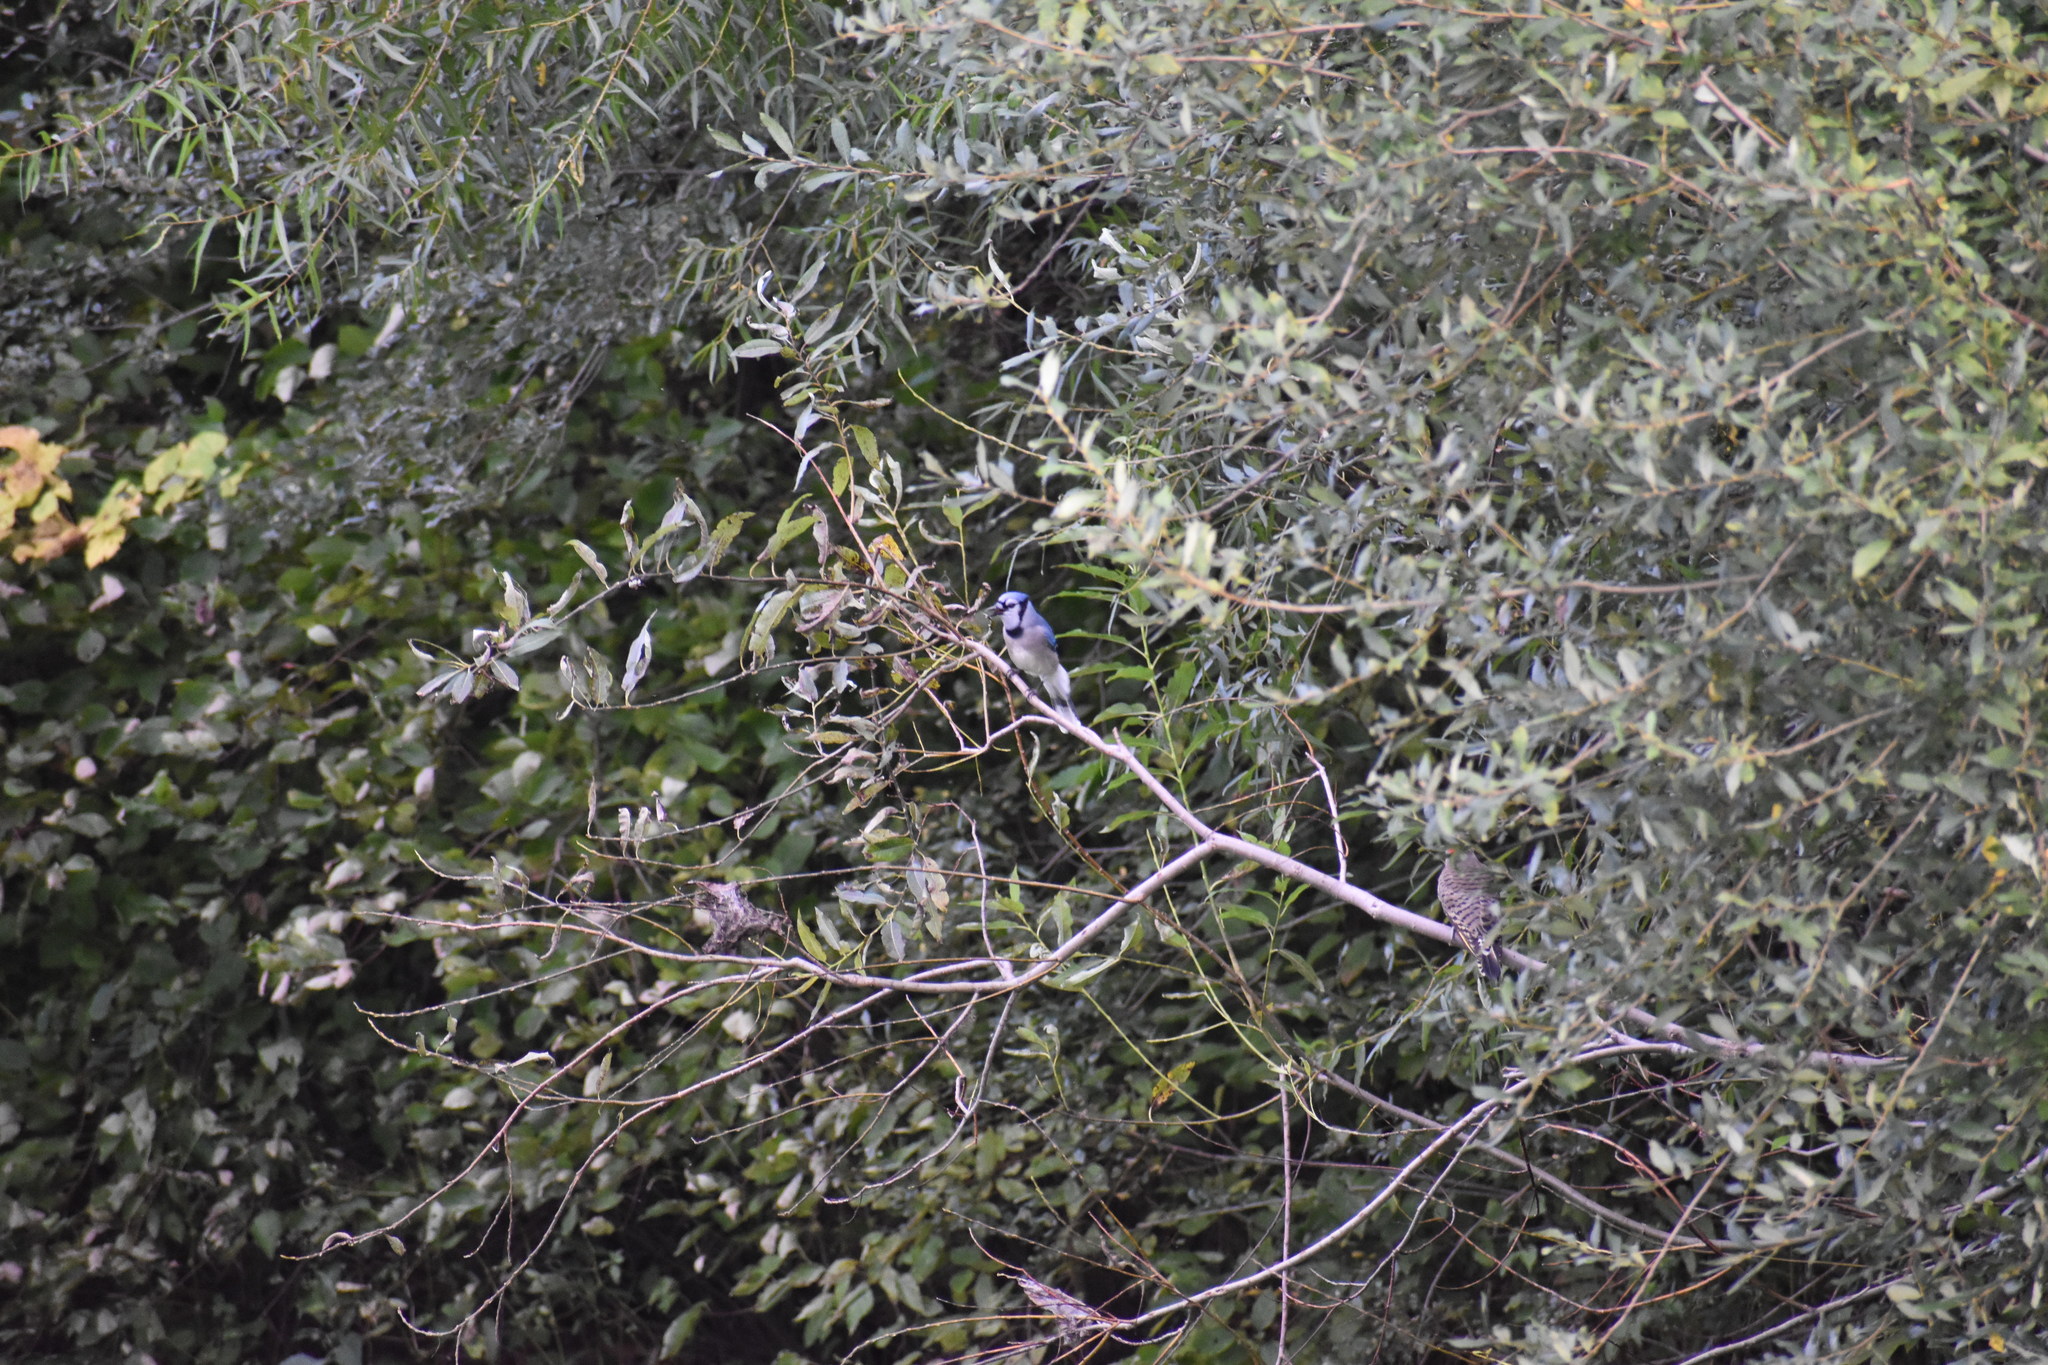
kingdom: Animalia
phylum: Chordata
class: Aves
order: Passeriformes
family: Corvidae
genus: Cyanocitta
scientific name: Cyanocitta cristata
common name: Blue jay
